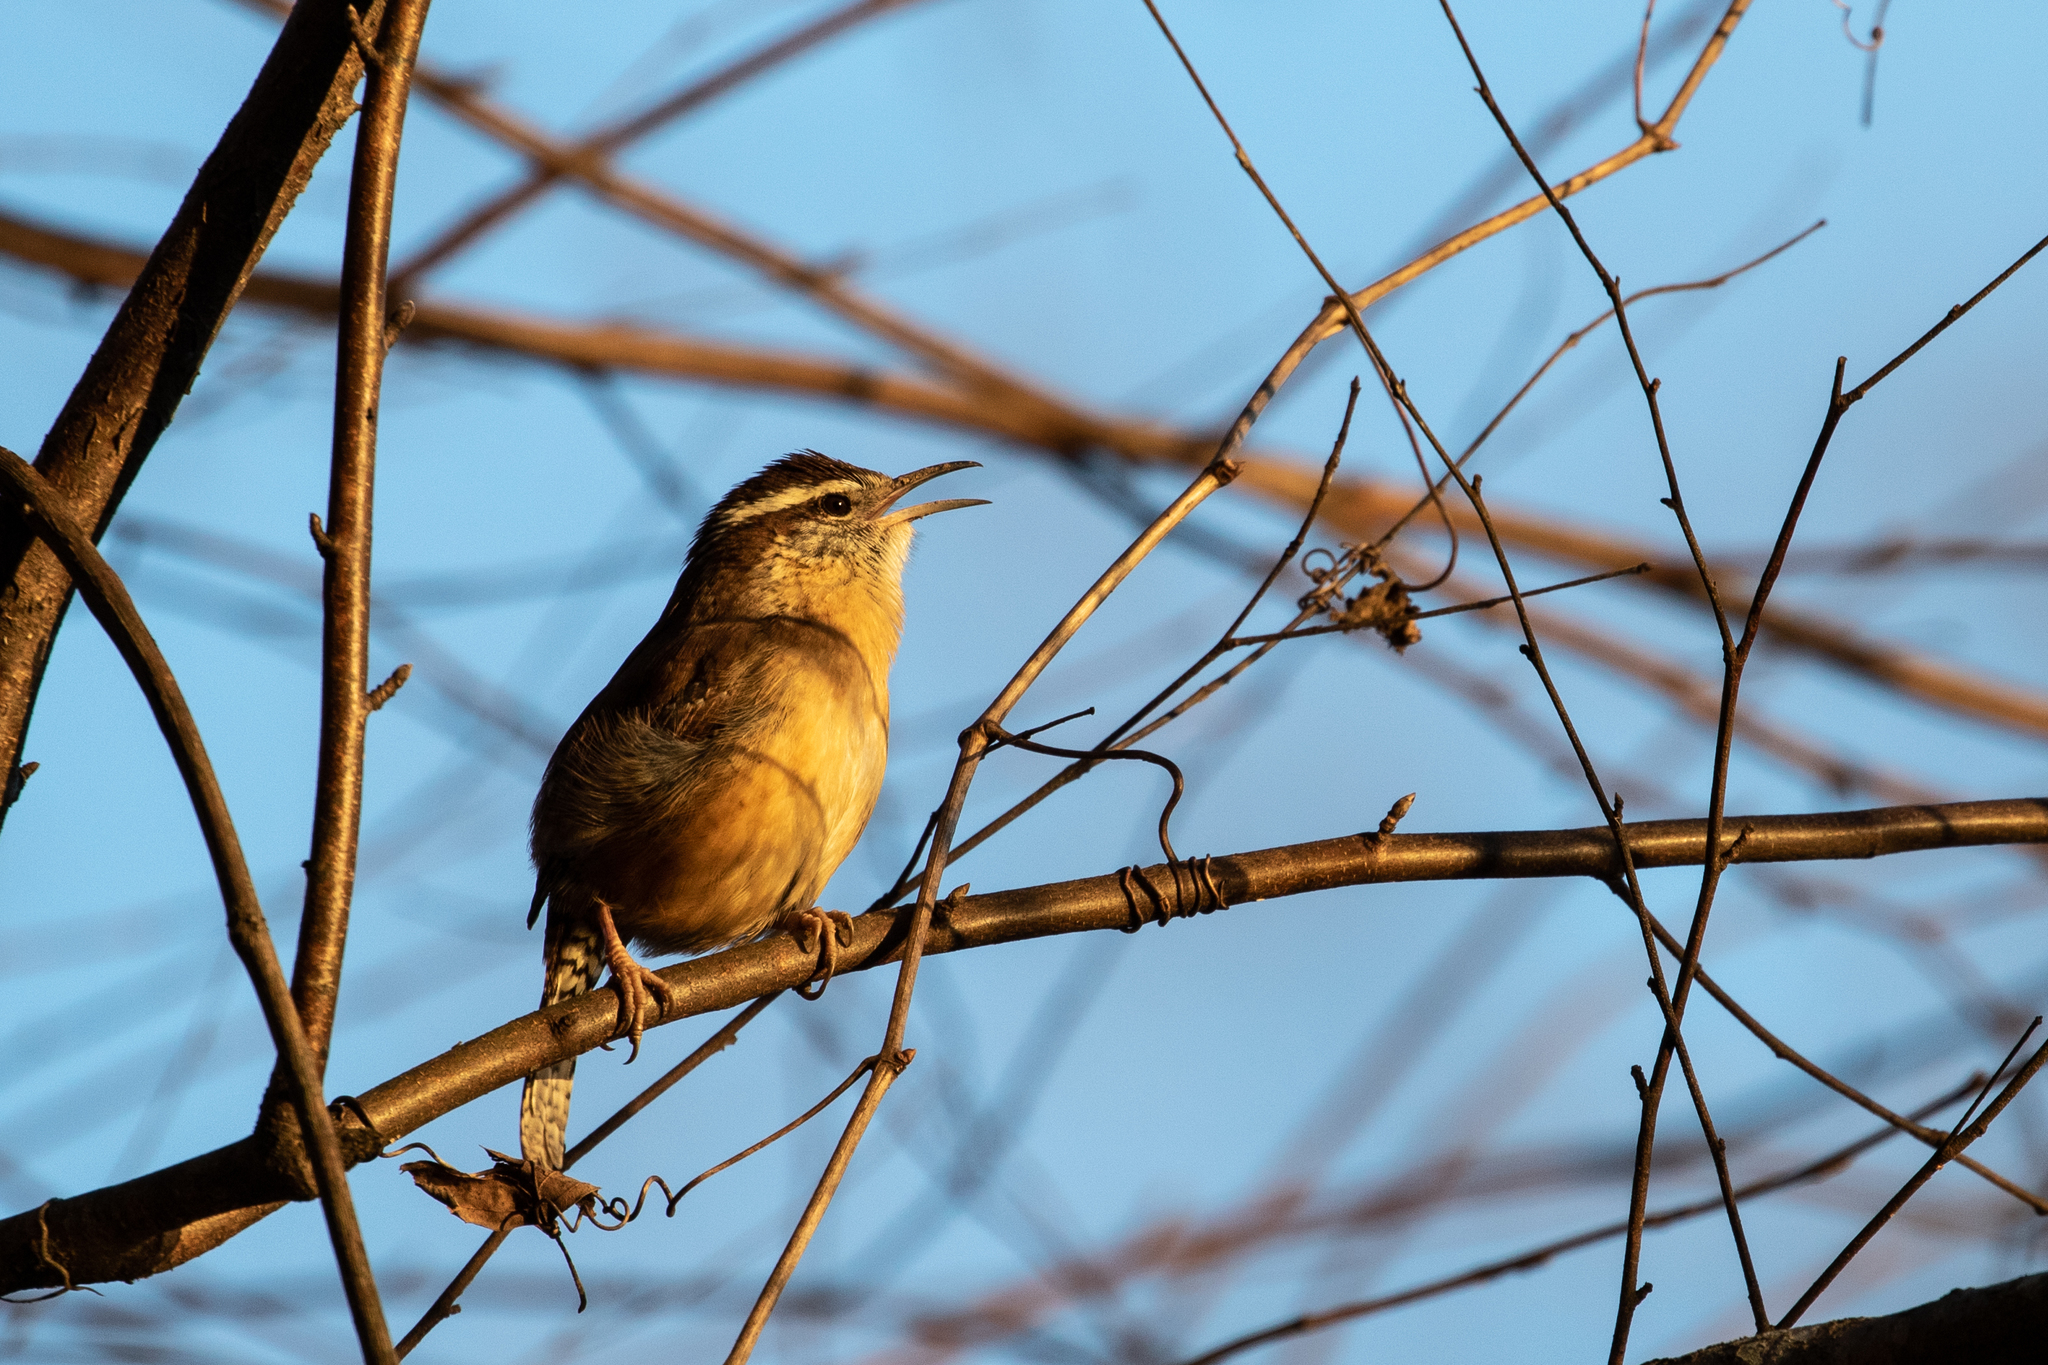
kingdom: Animalia
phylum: Chordata
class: Aves
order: Passeriformes
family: Troglodytidae
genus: Thryothorus
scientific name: Thryothorus ludovicianus
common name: Carolina wren
